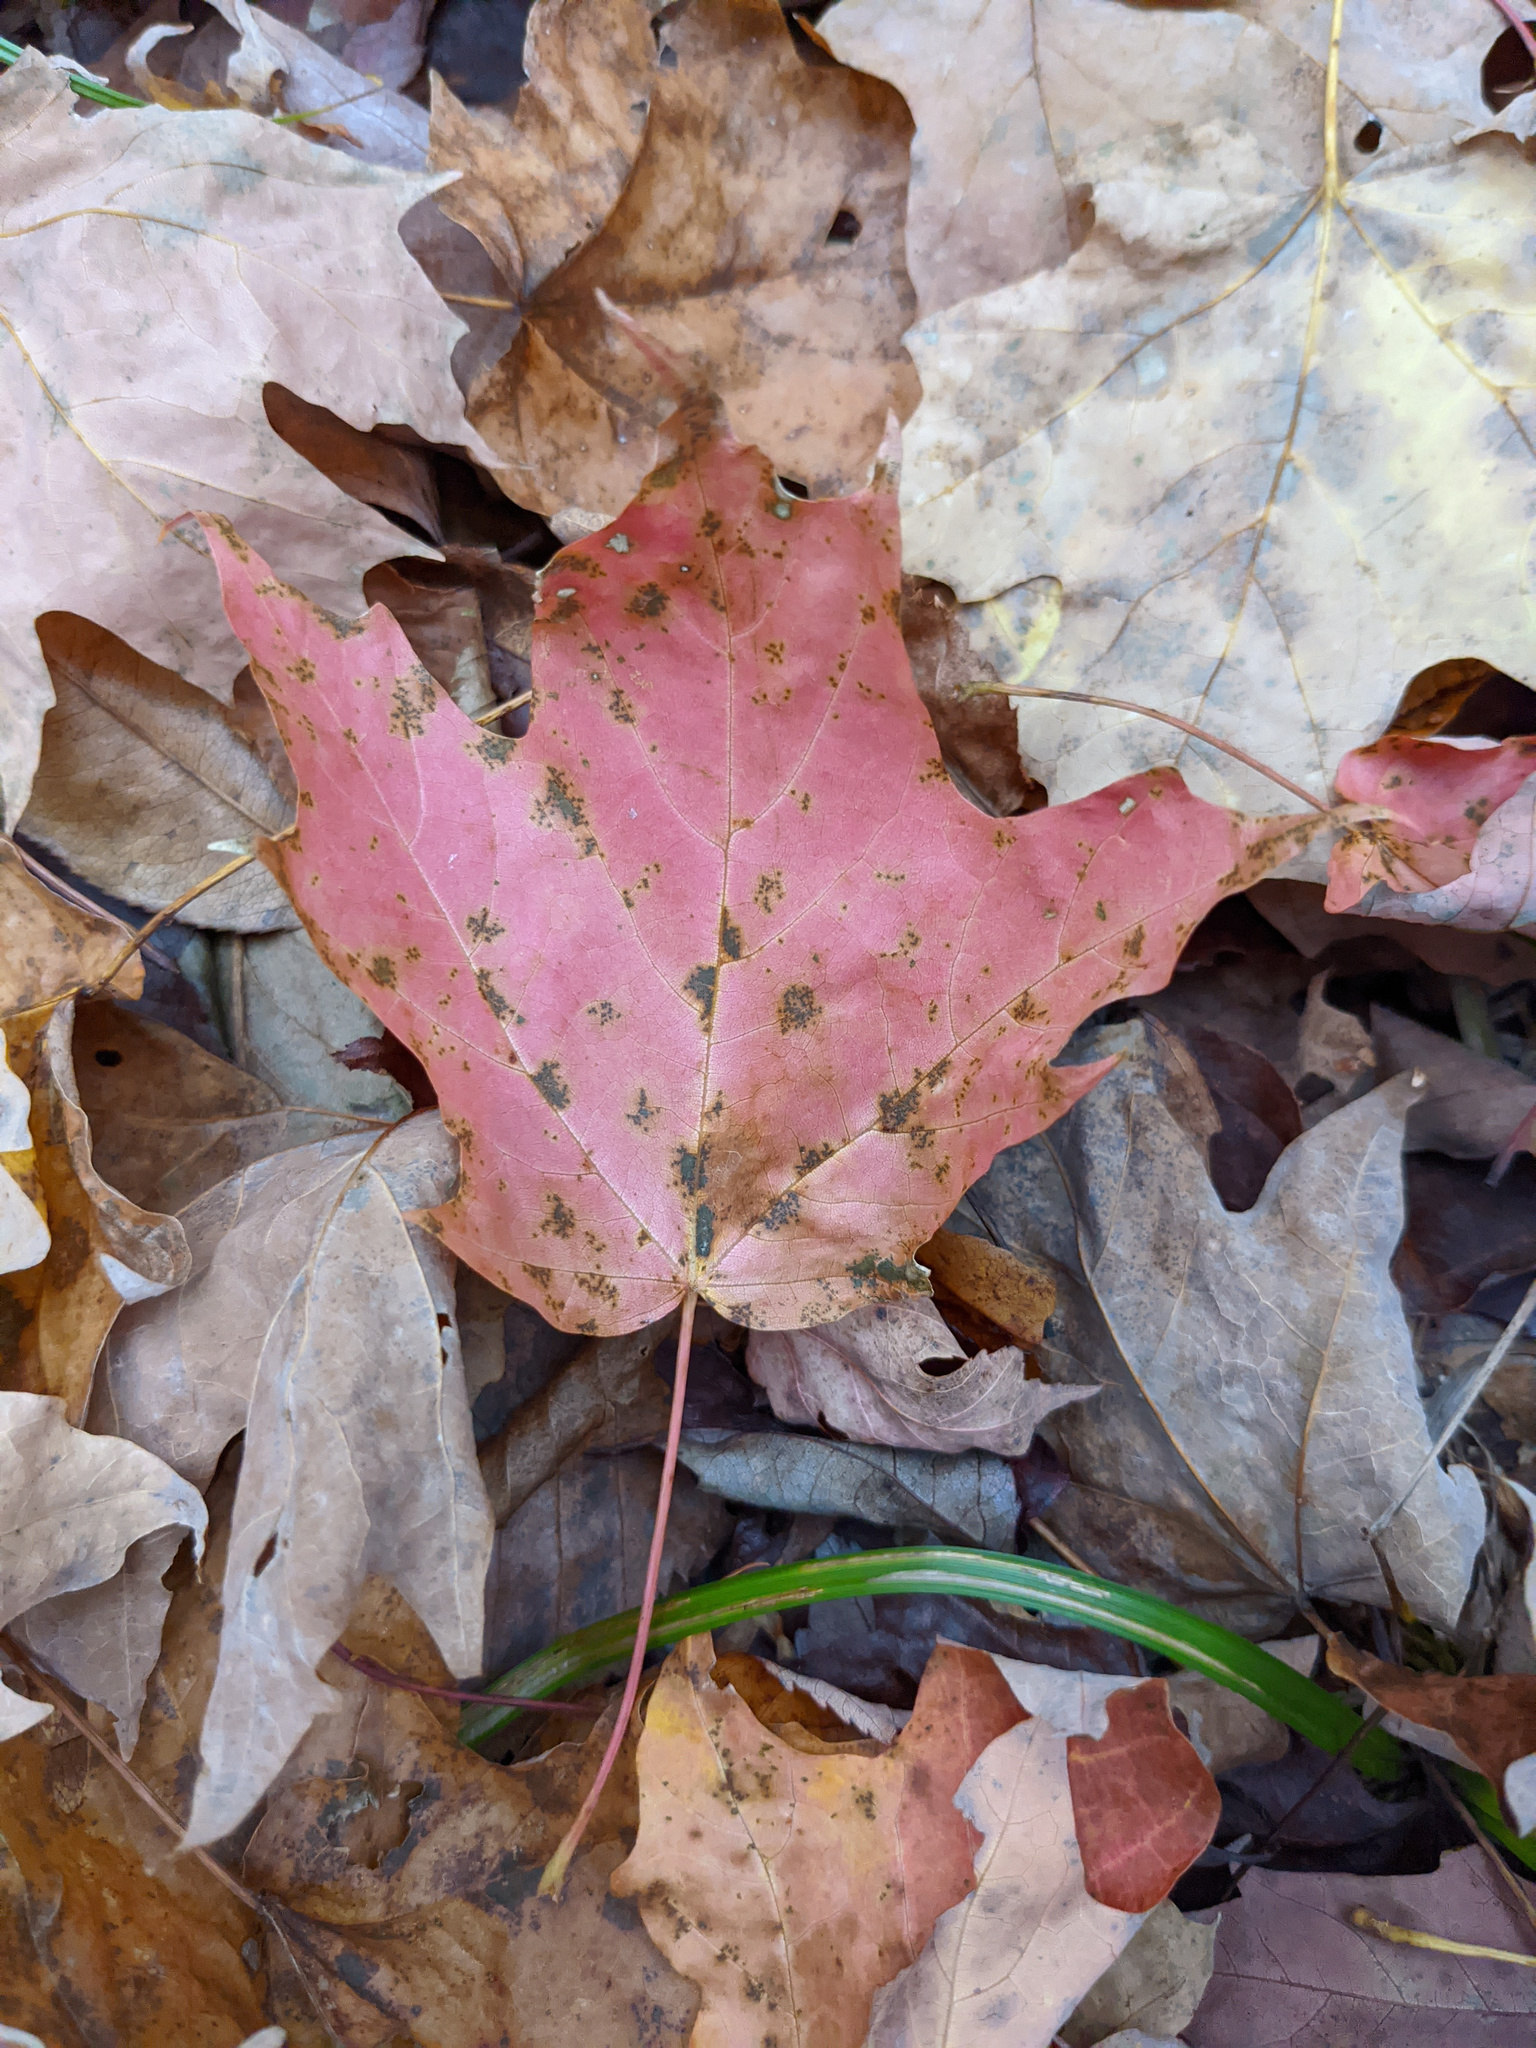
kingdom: Plantae
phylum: Tracheophyta
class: Magnoliopsida
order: Sapindales
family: Sapindaceae
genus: Acer
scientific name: Acer saccharum
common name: Sugar maple
